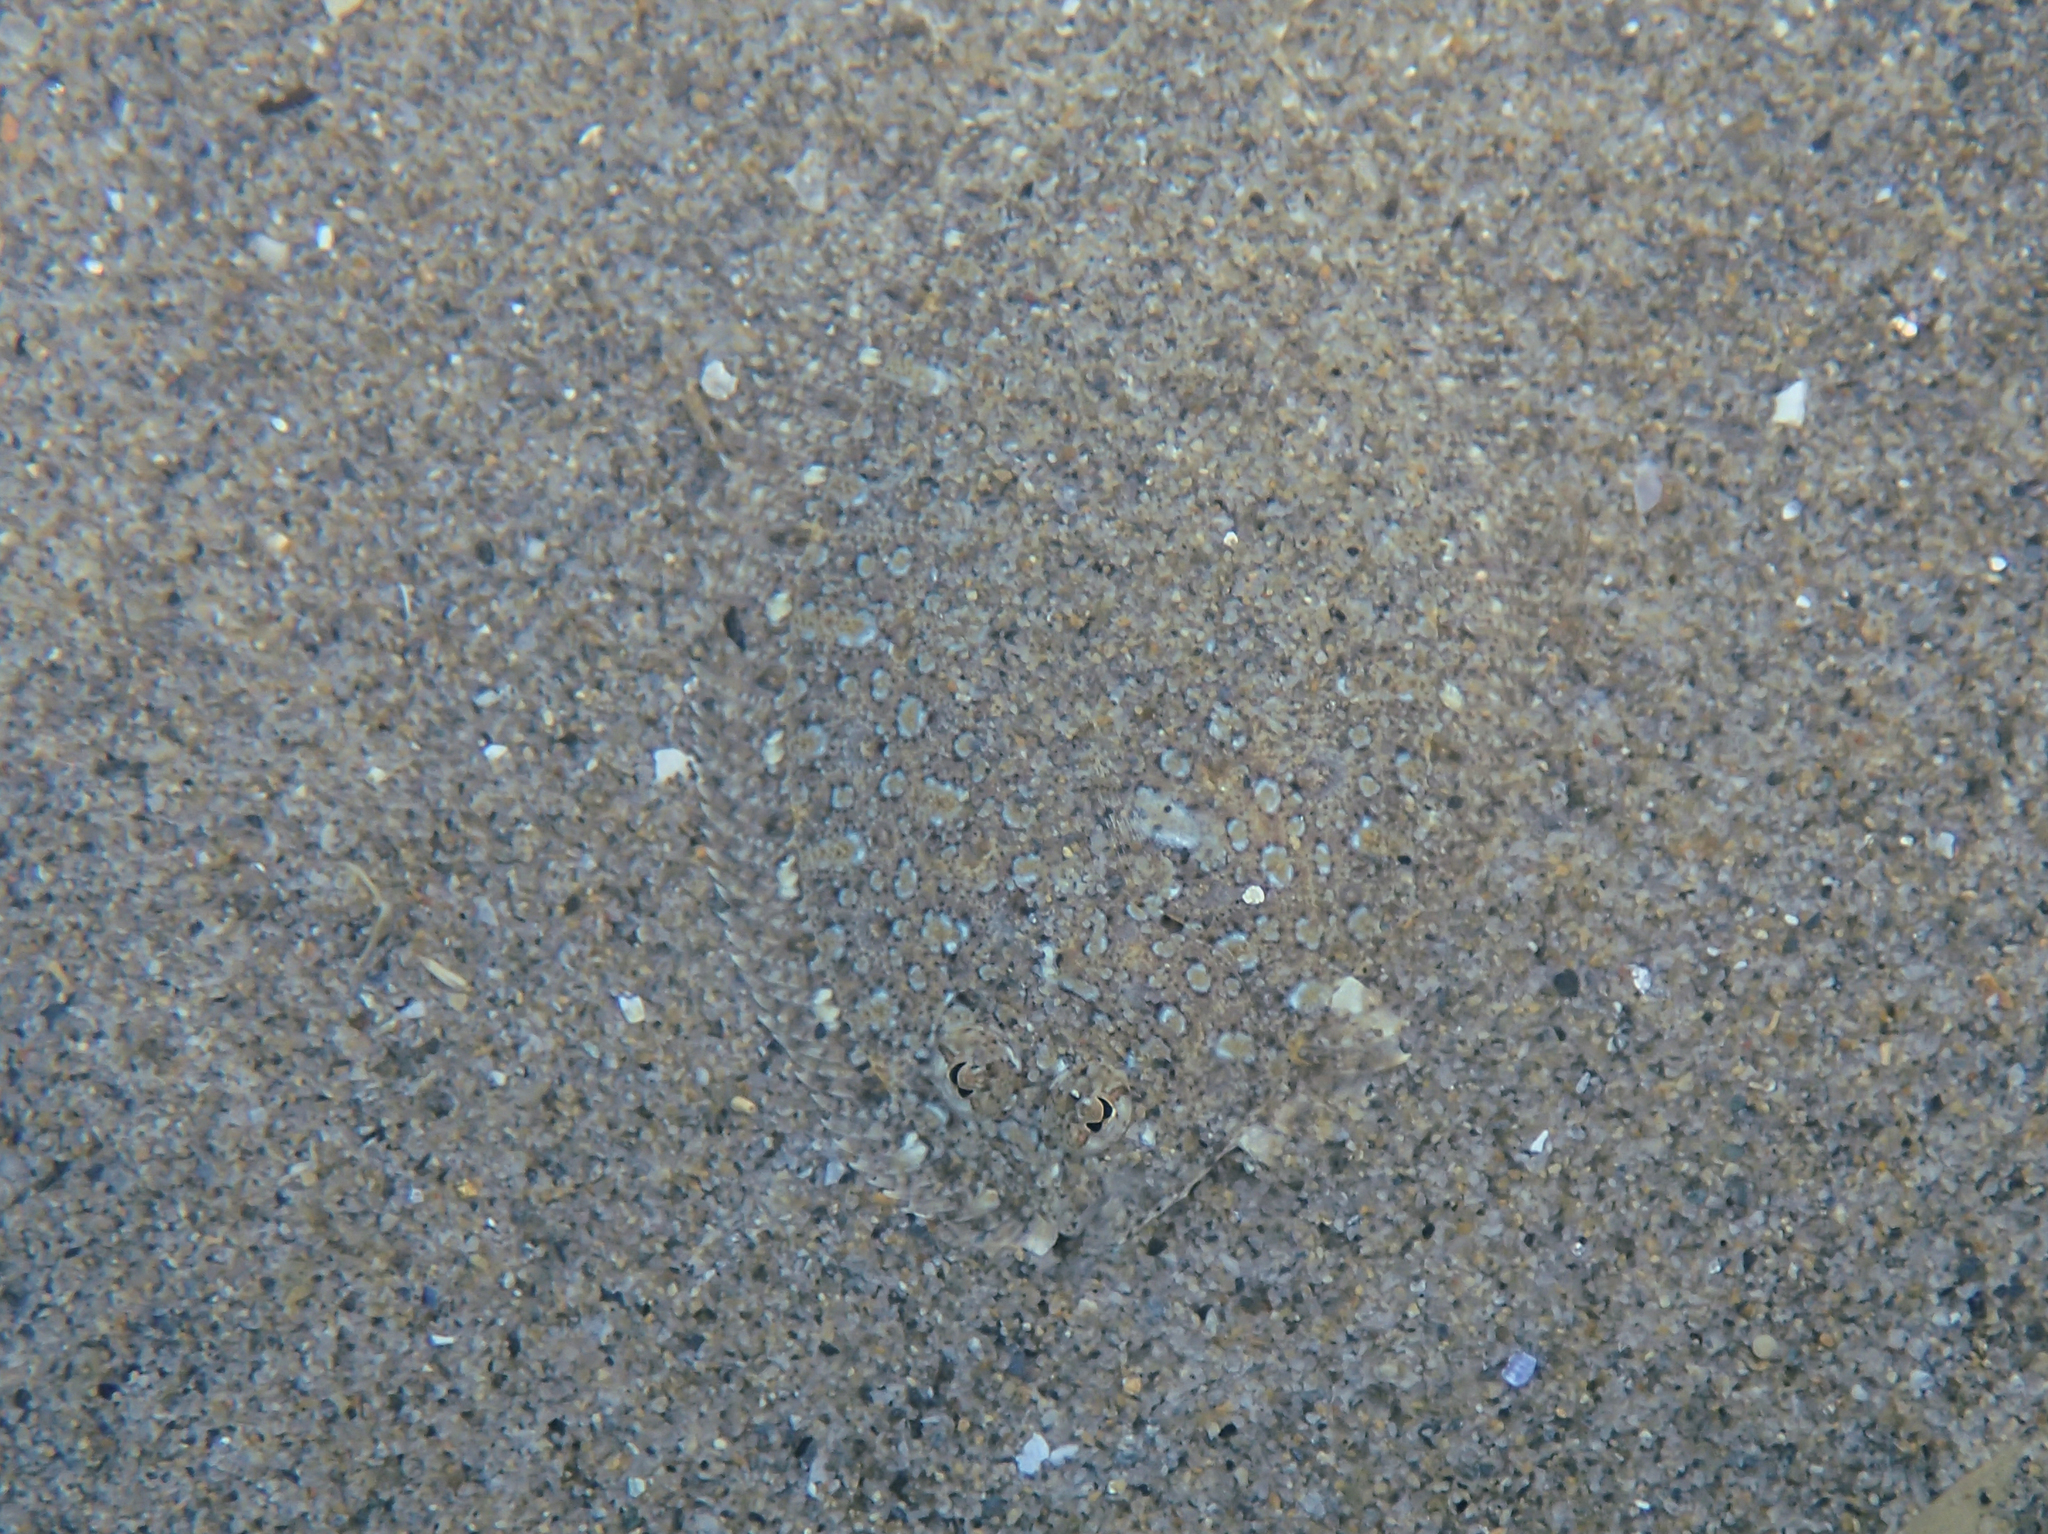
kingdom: Animalia
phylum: Chordata
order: Pleuronectiformes
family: Bothidae
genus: Bothus
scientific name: Bothus podas
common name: Wide-eyed flounder
